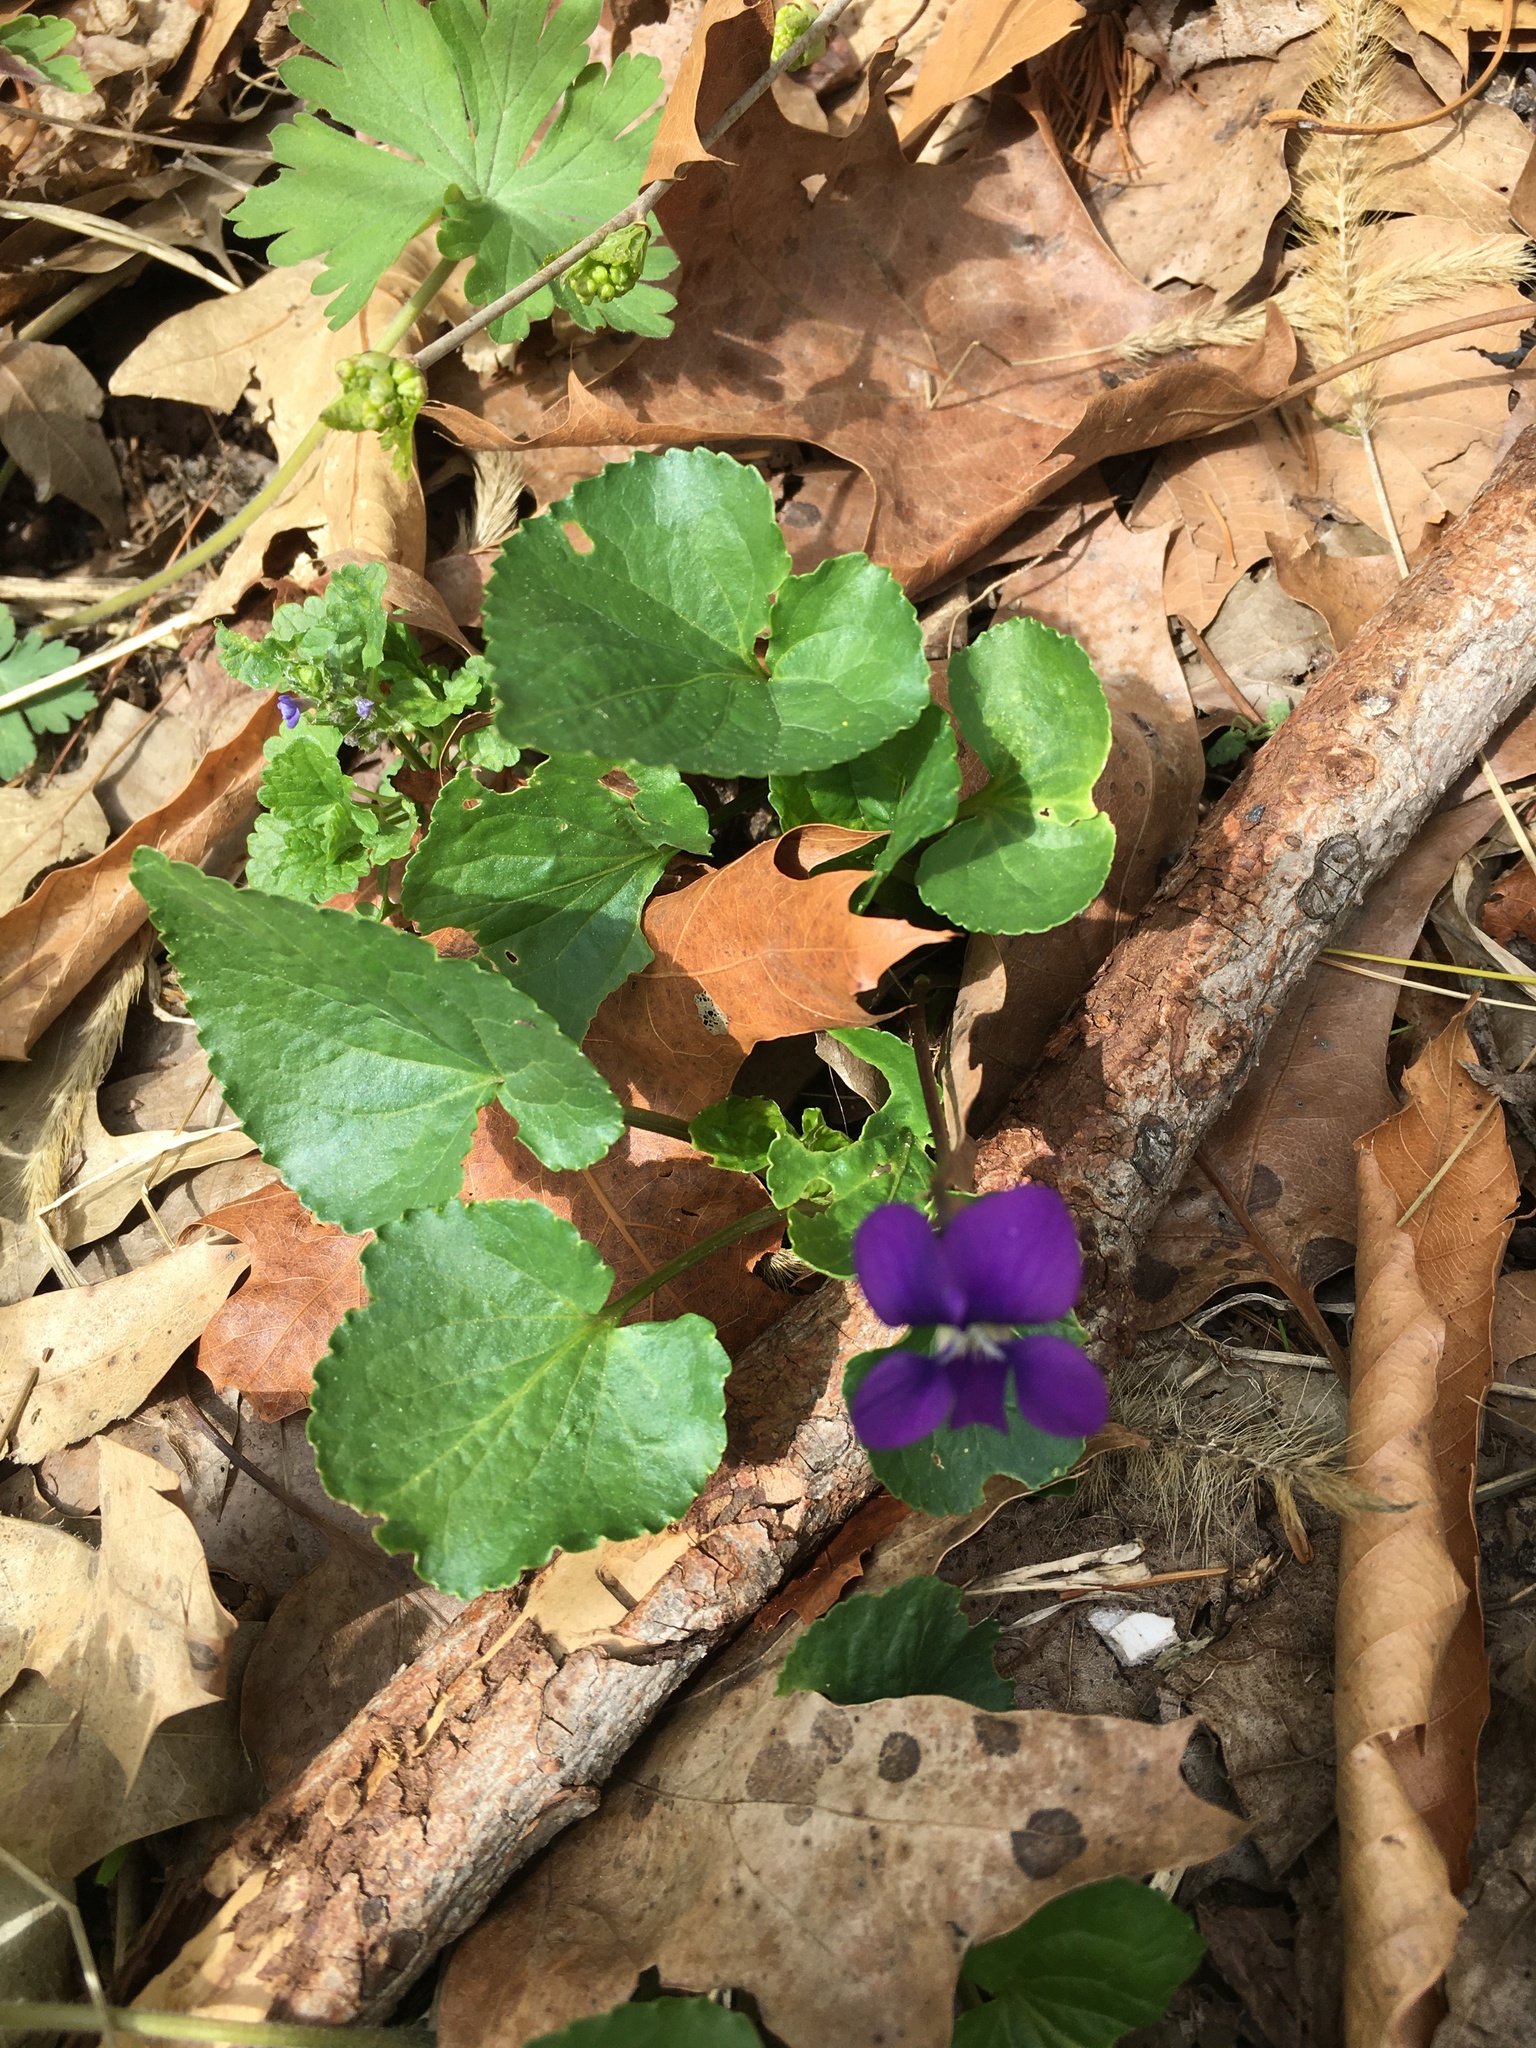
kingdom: Plantae
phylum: Tracheophyta
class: Magnoliopsida
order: Malpighiales
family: Violaceae
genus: Viola
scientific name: Viola sororia
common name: Dooryard violet
